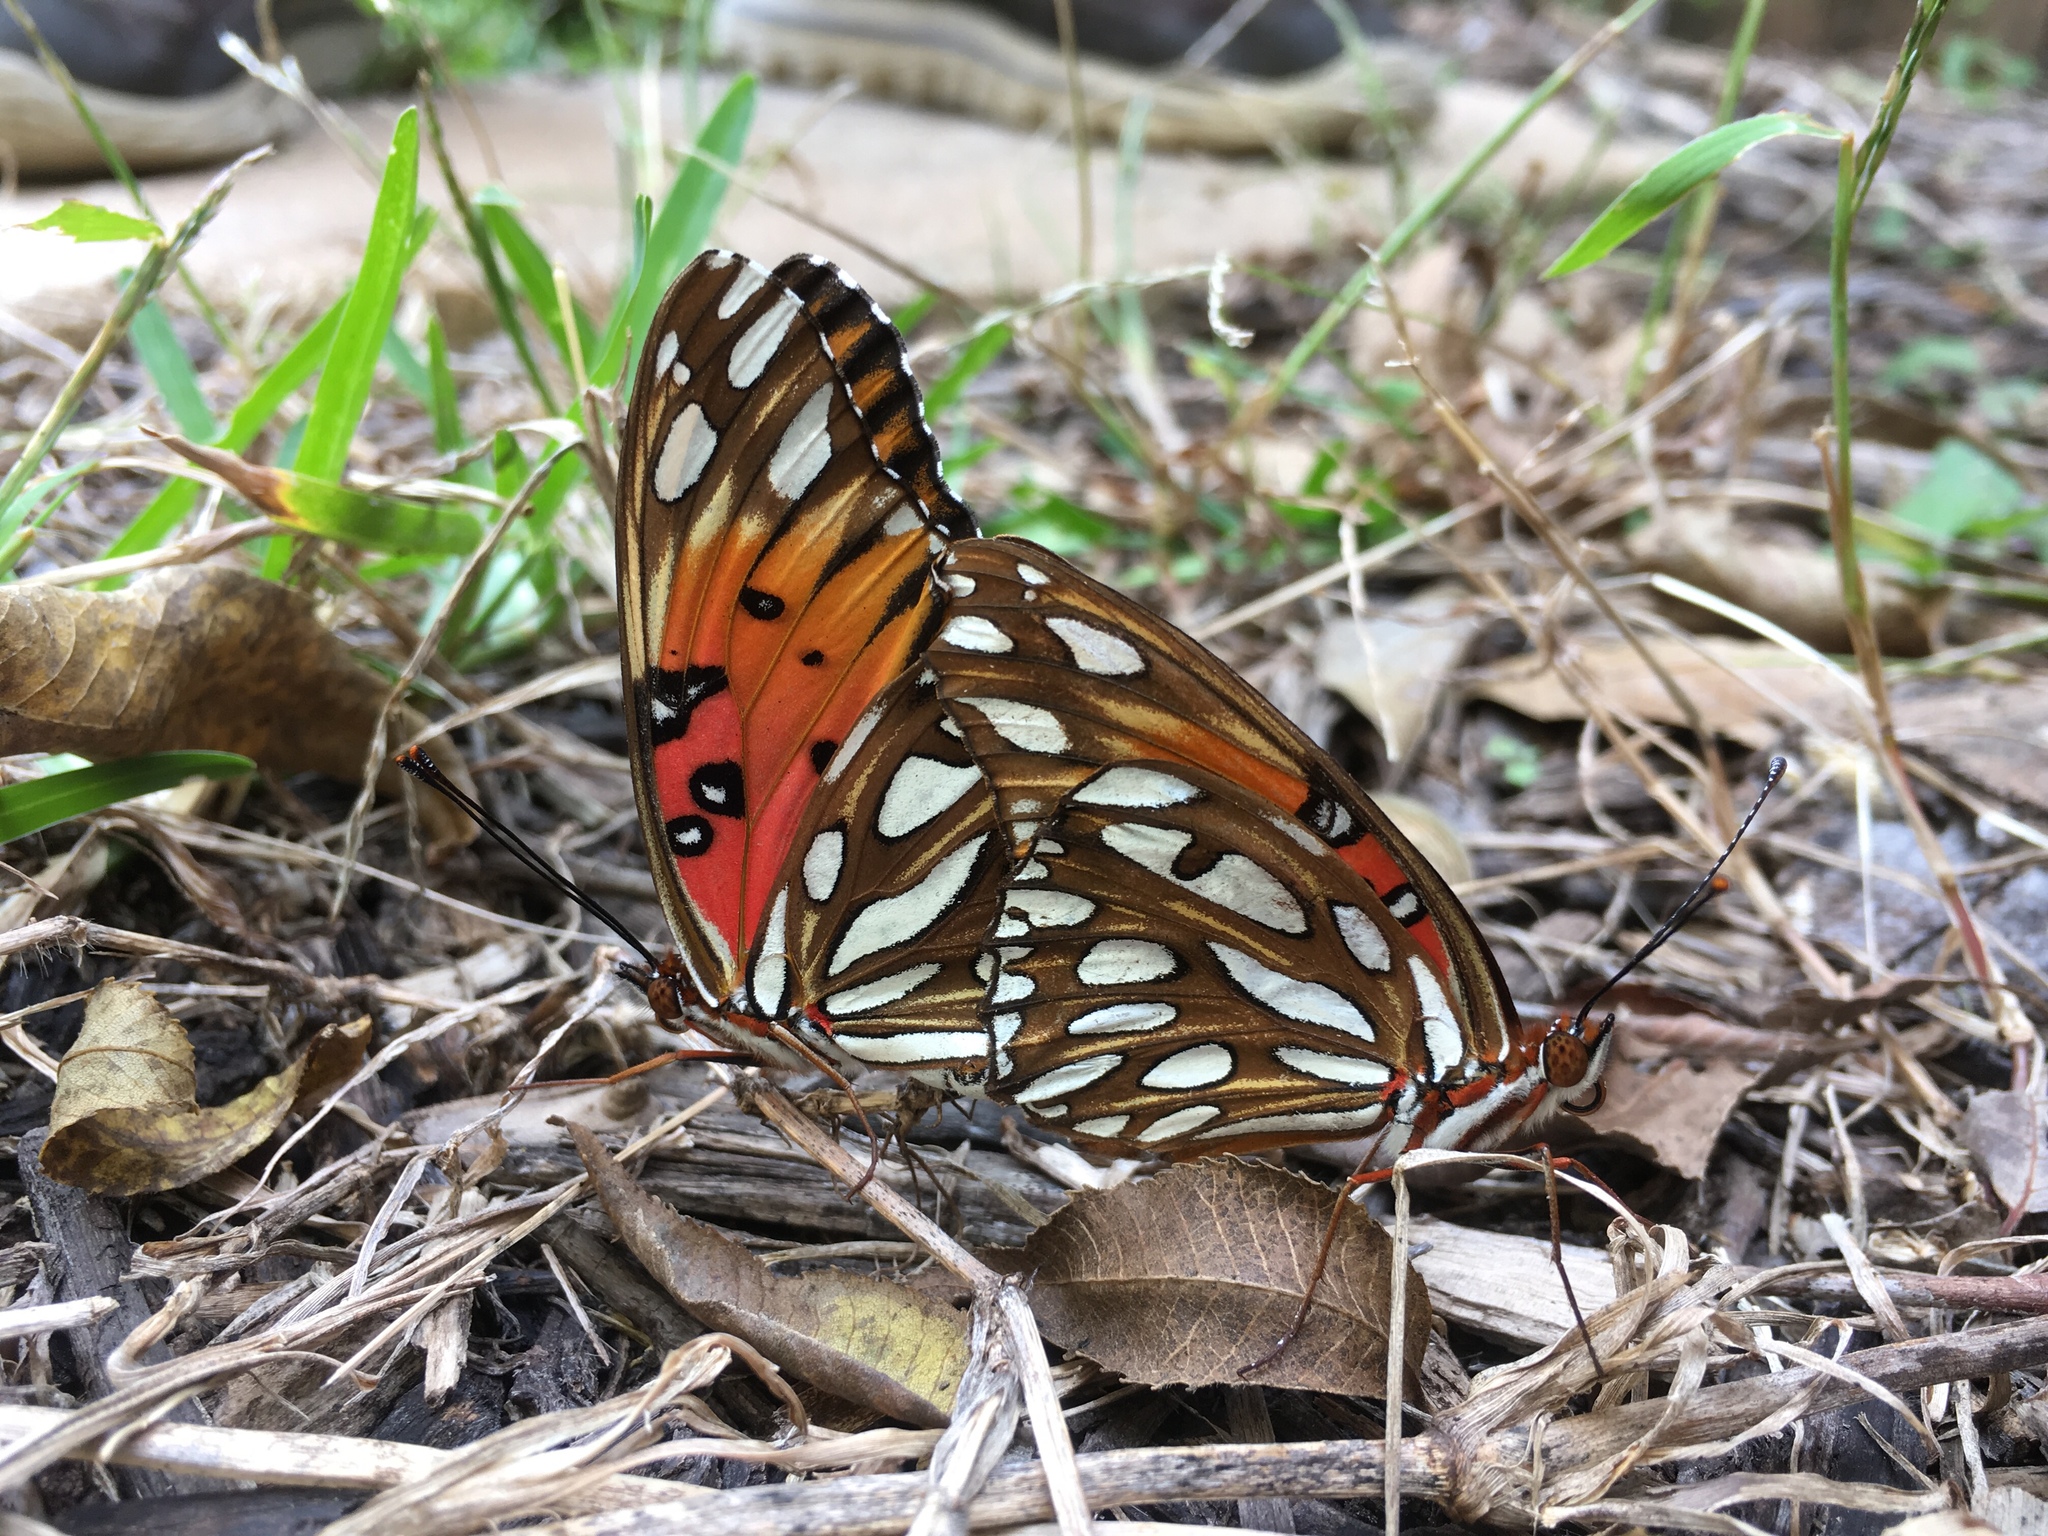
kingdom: Animalia
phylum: Arthropoda
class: Insecta
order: Lepidoptera
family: Nymphalidae
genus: Dione
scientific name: Dione vanillae
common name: Gulf fritillary
